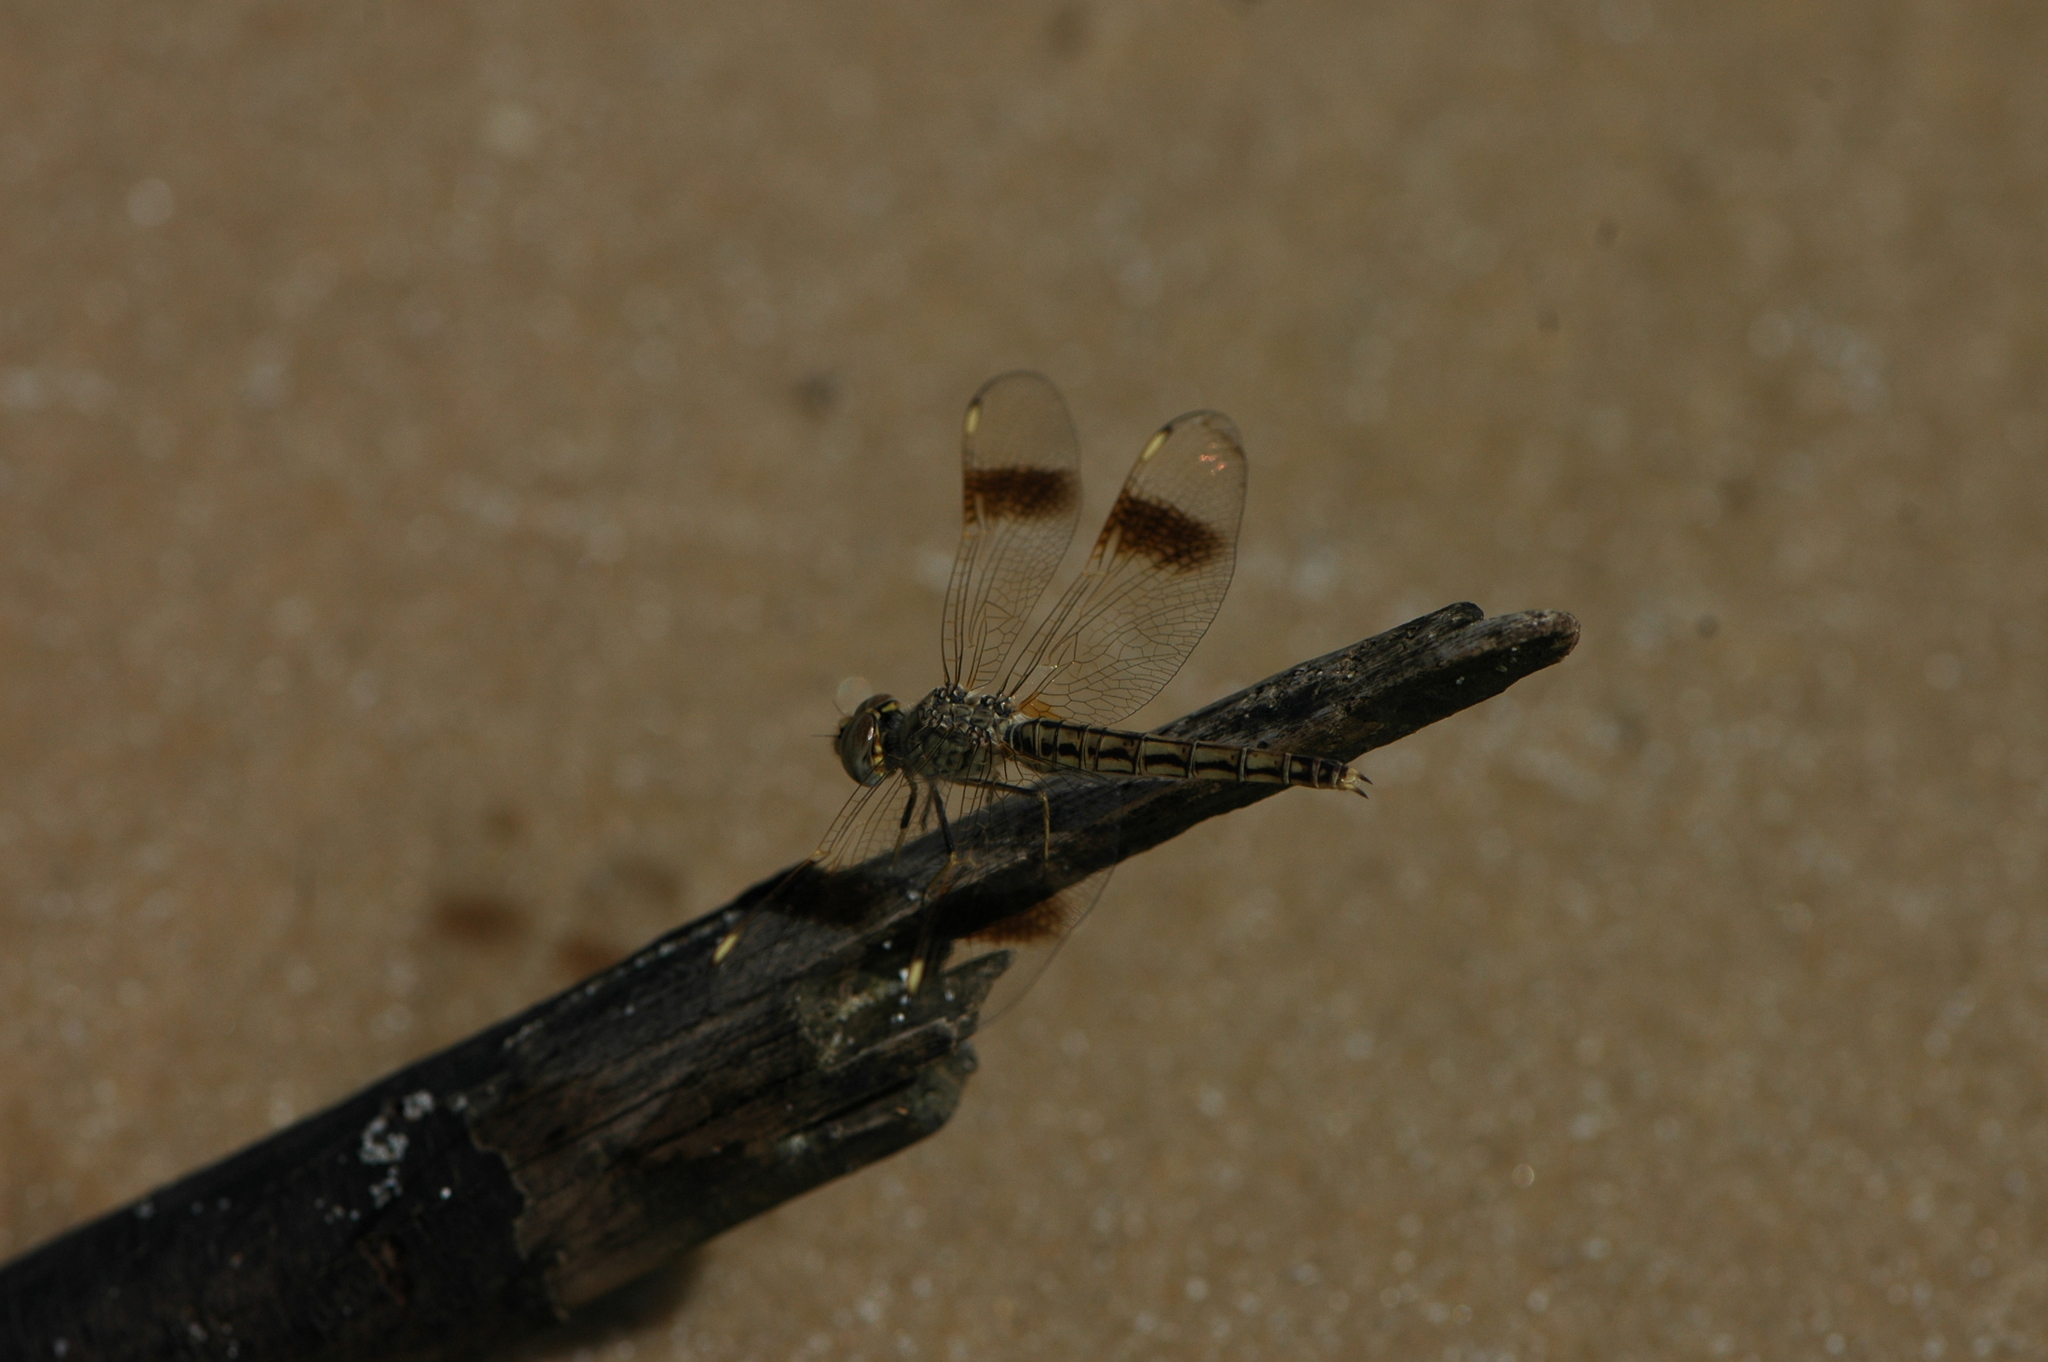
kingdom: Animalia
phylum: Arthropoda
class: Insecta
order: Odonata
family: Libellulidae
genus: Brachythemis
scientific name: Brachythemis leucosticta
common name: Banded groundling
